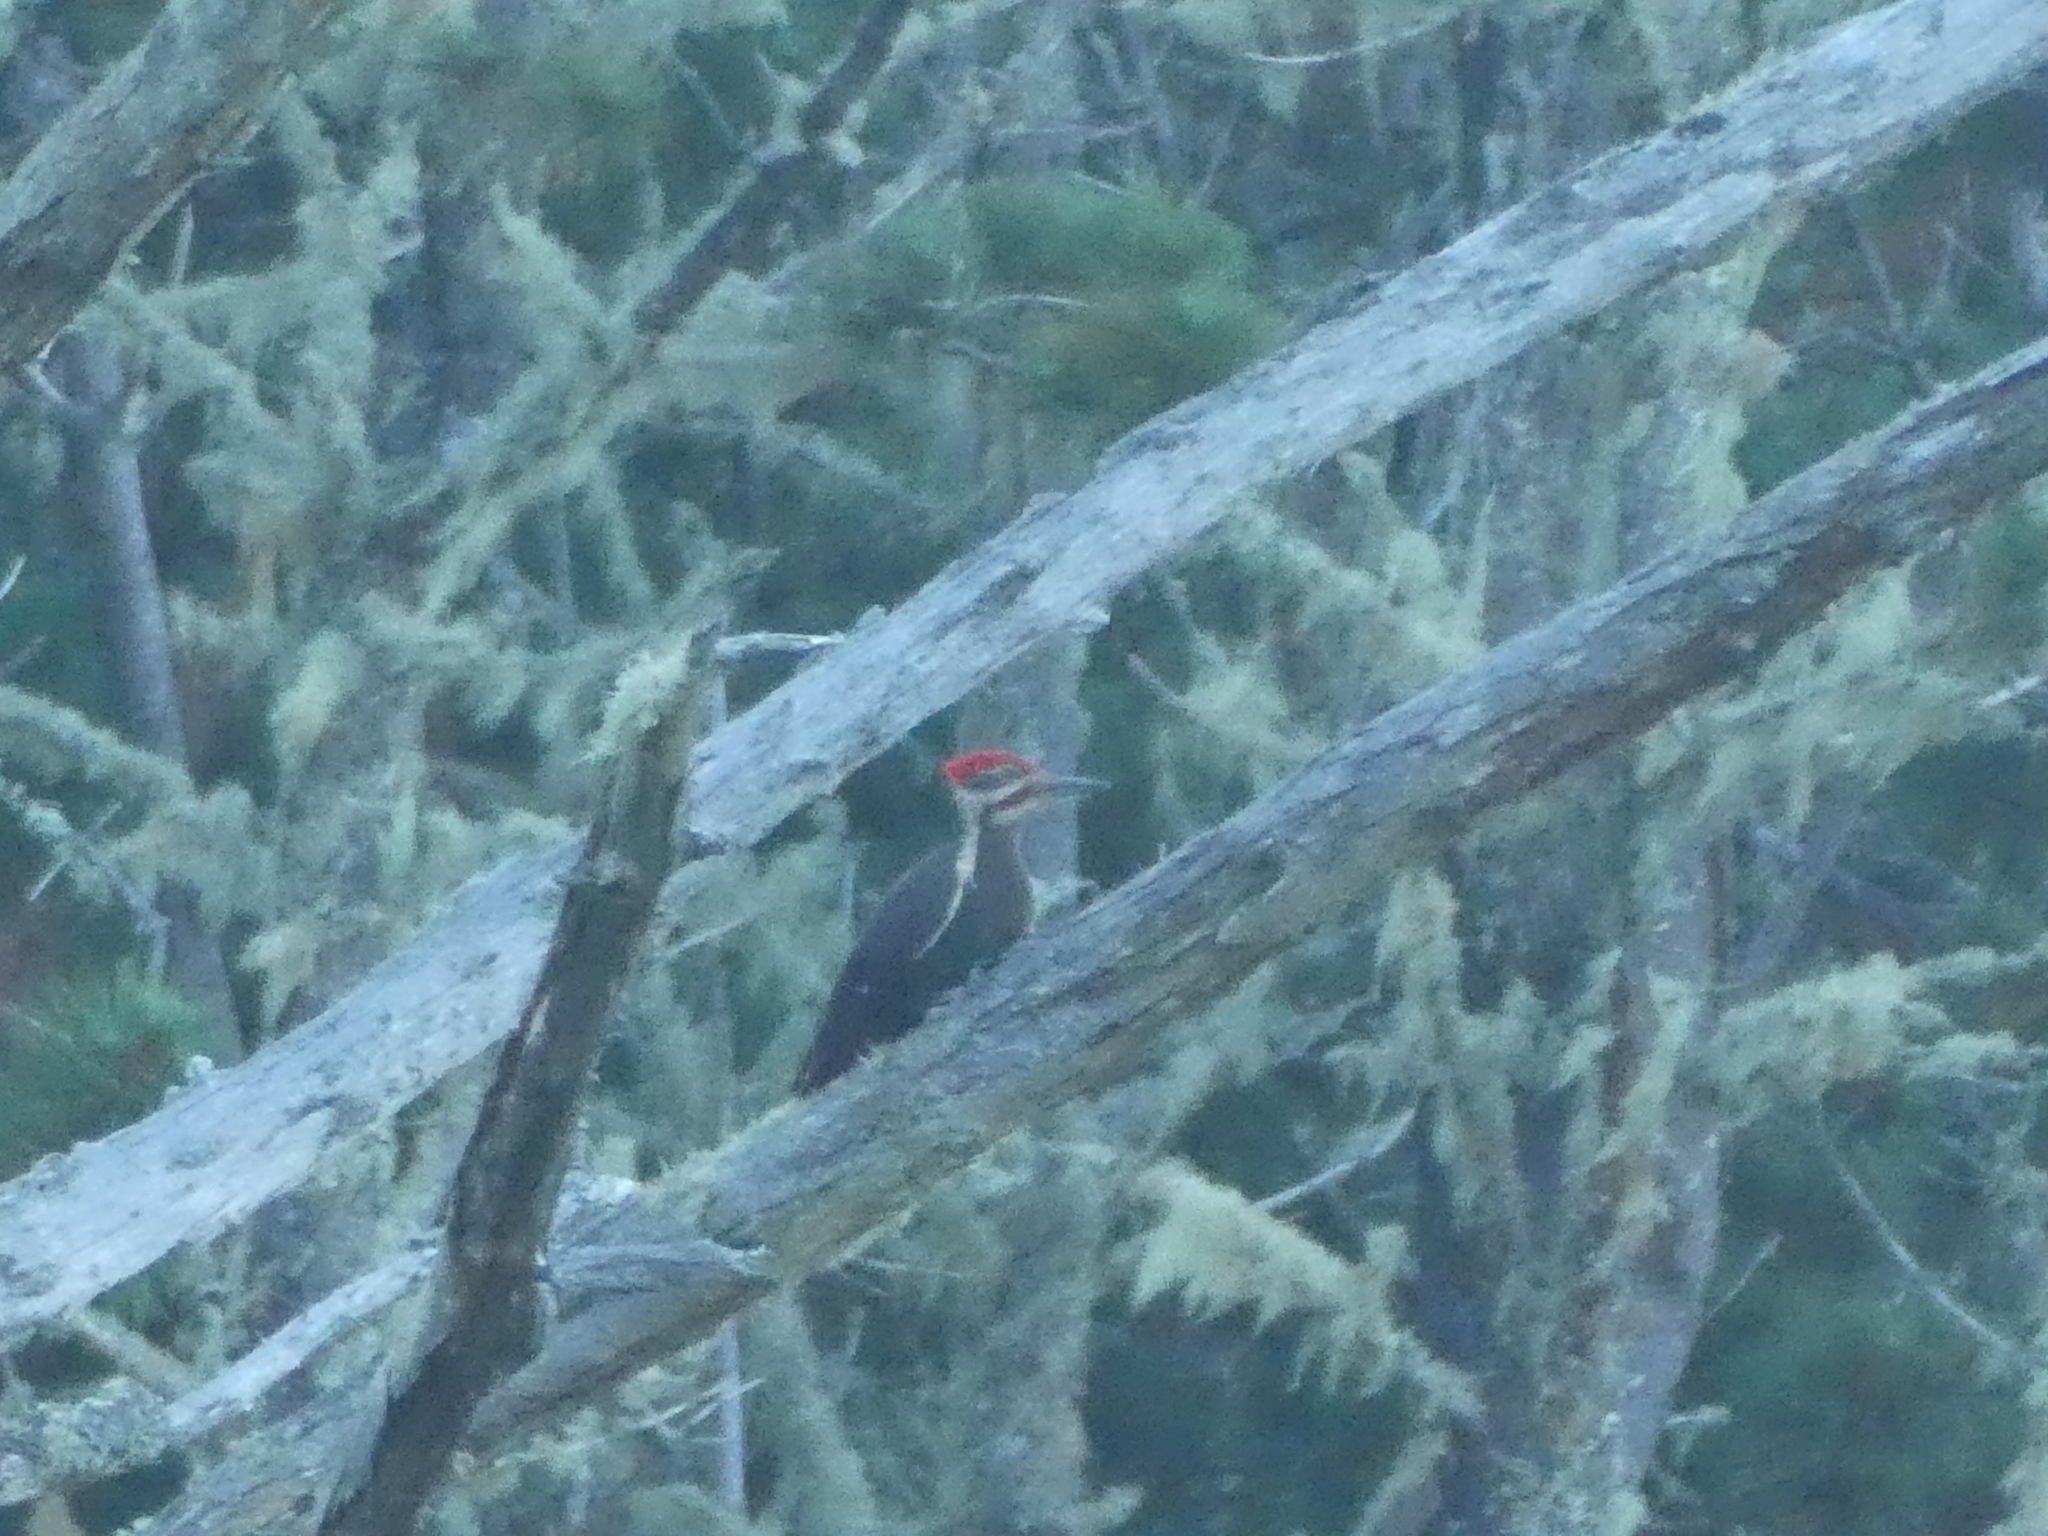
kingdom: Animalia
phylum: Chordata
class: Aves
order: Piciformes
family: Picidae
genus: Dryocopus
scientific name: Dryocopus pileatus
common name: Pileated woodpecker
